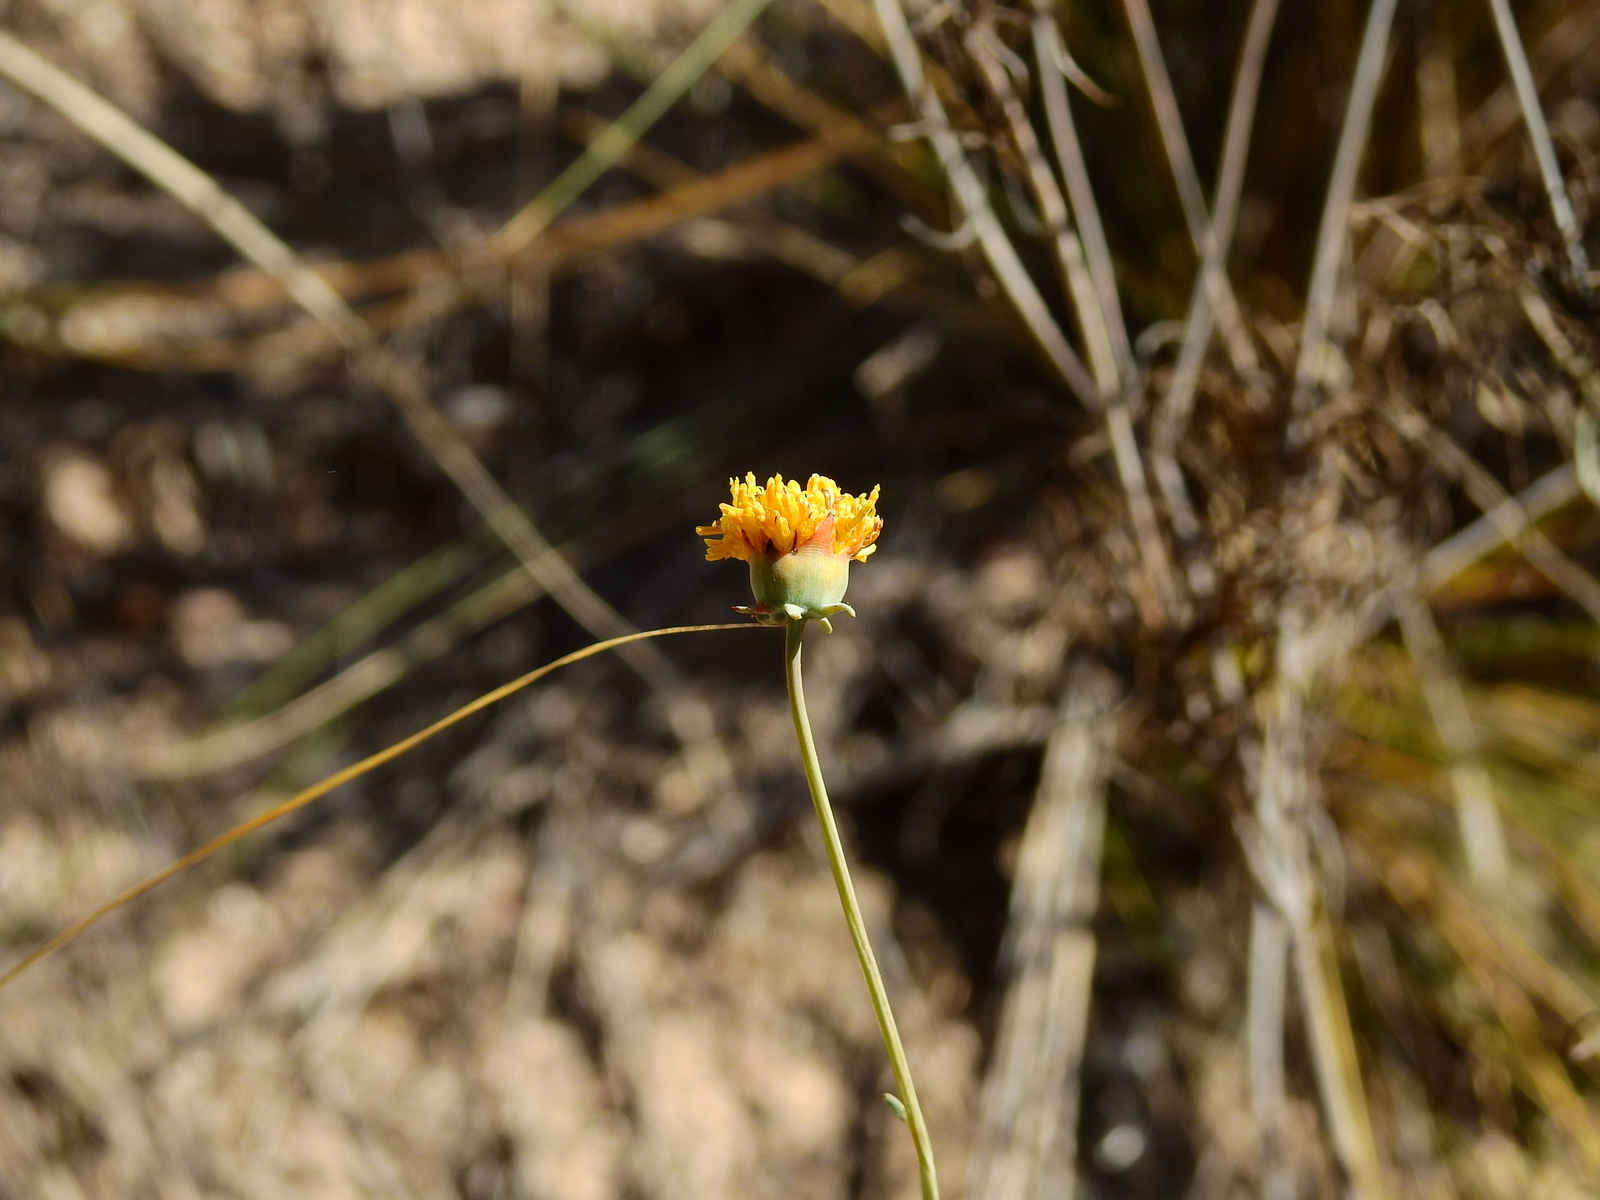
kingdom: Plantae
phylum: Tracheophyta
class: Magnoliopsida
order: Asterales
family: Asteraceae
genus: Thelesperma
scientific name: Thelesperma megapotamicum
